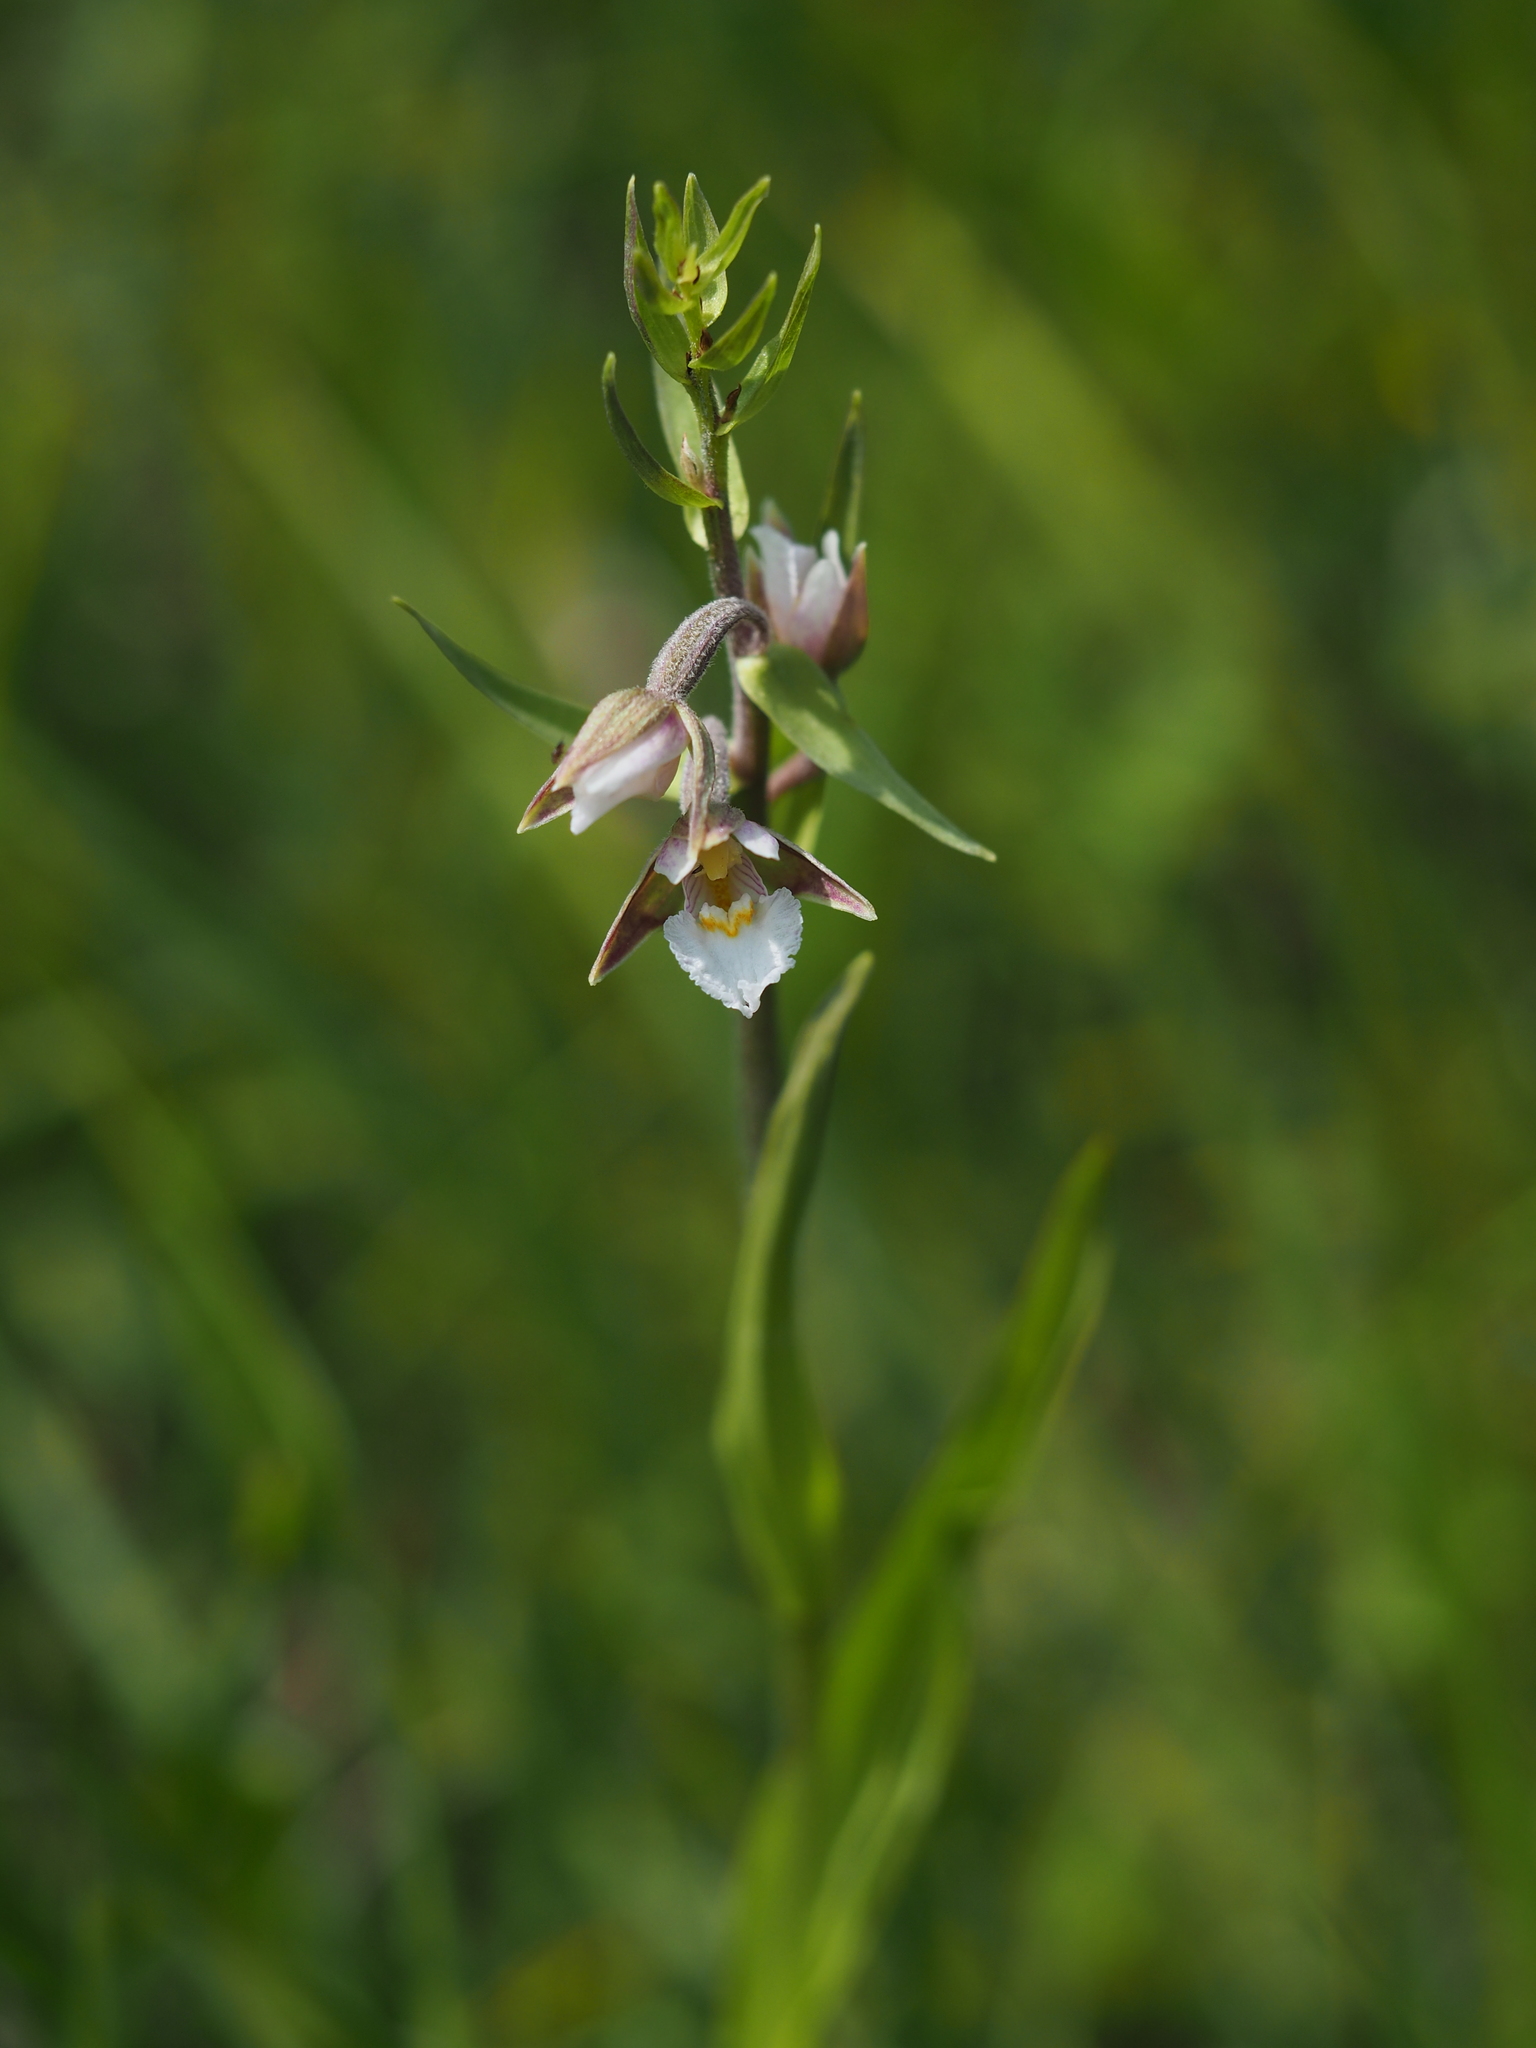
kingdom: Plantae
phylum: Tracheophyta
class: Liliopsida
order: Asparagales
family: Orchidaceae
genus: Epipactis
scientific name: Epipactis palustris
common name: Marsh helleborine
